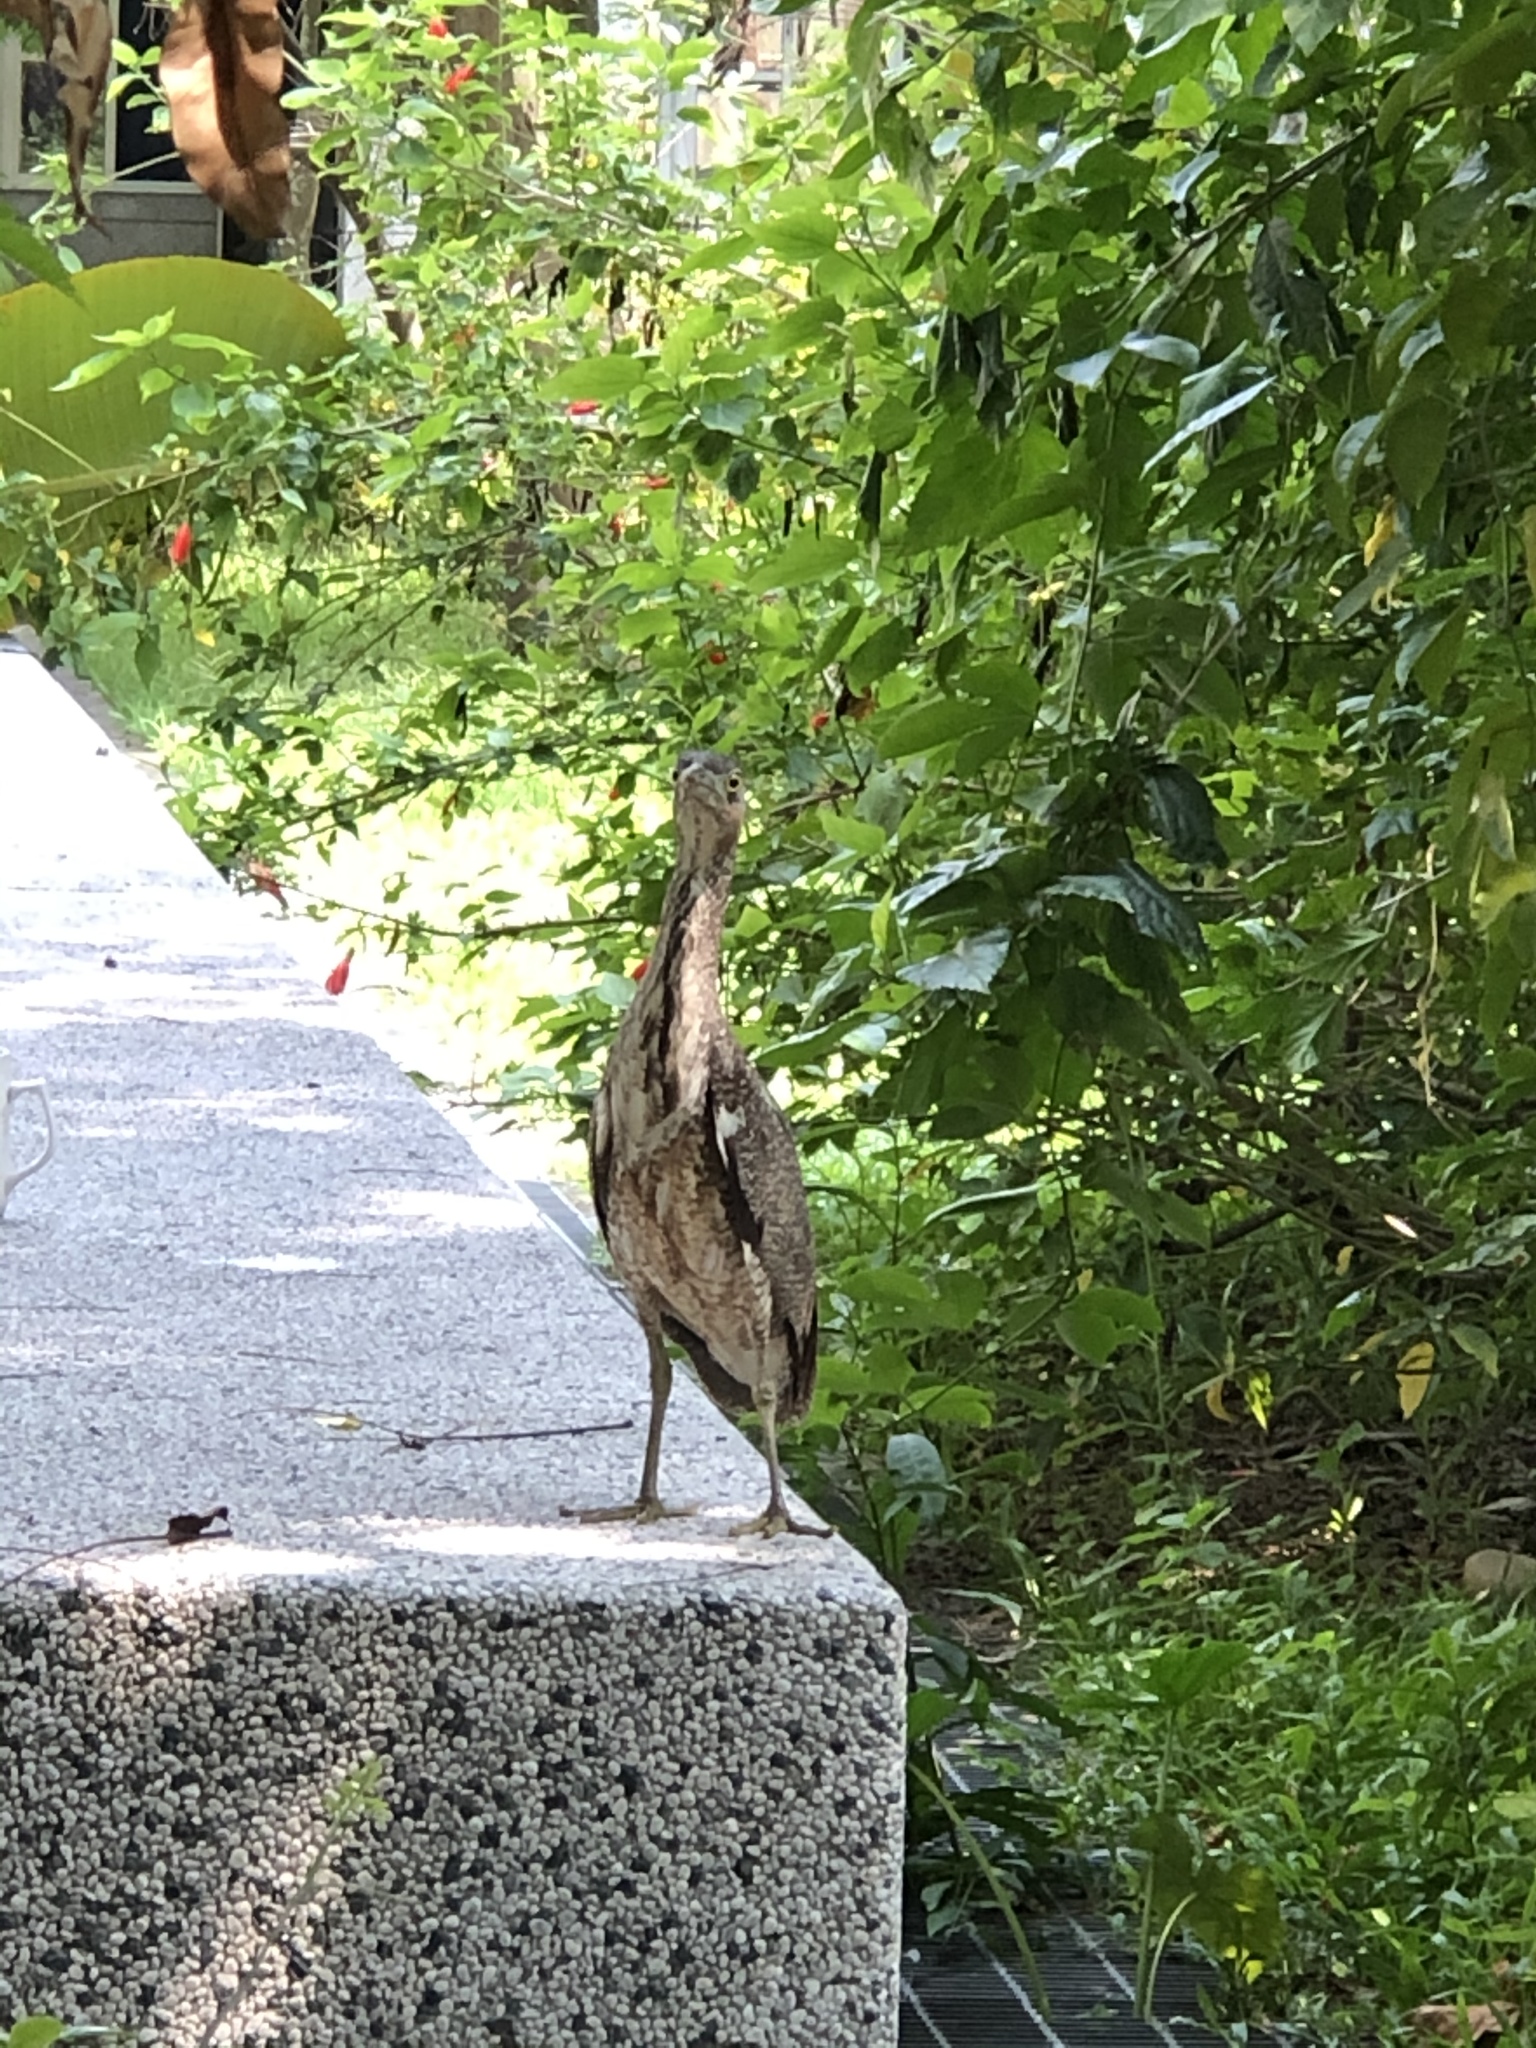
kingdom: Animalia
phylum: Chordata
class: Aves
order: Pelecaniformes
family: Ardeidae
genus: Gorsachius
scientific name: Gorsachius melanolophus
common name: Malayan night heron
